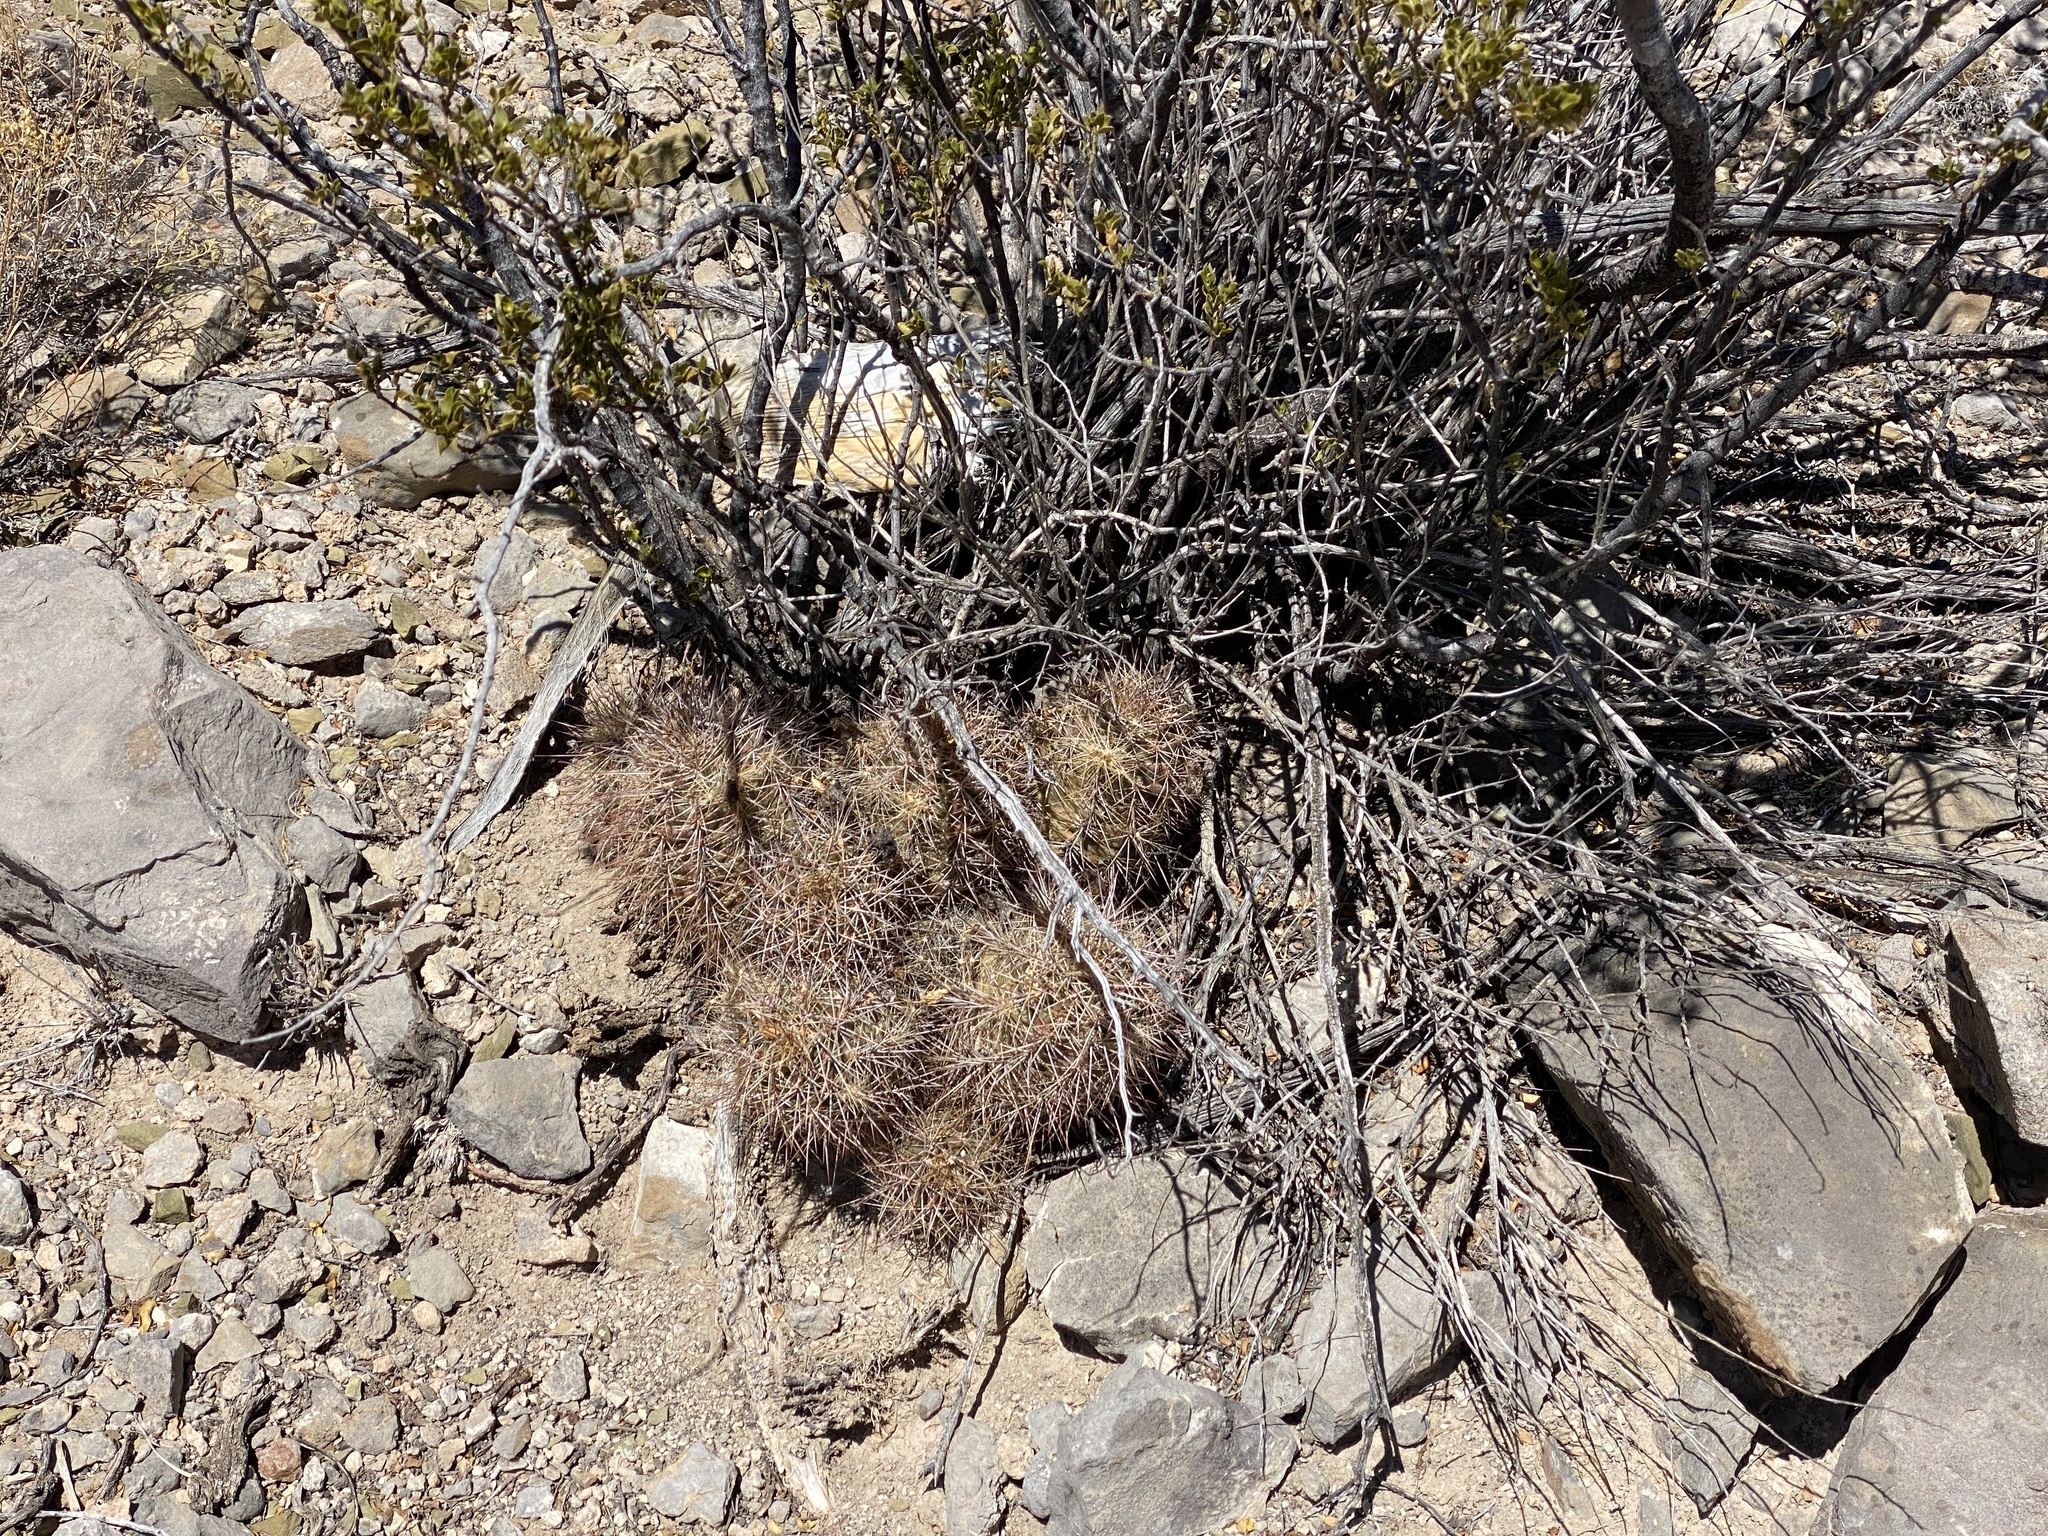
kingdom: Plantae
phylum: Tracheophyta
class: Magnoliopsida
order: Caryophyllales
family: Cactaceae
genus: Echinocereus
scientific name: Echinocereus coccineus
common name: Scarlet hedgehog cactus
